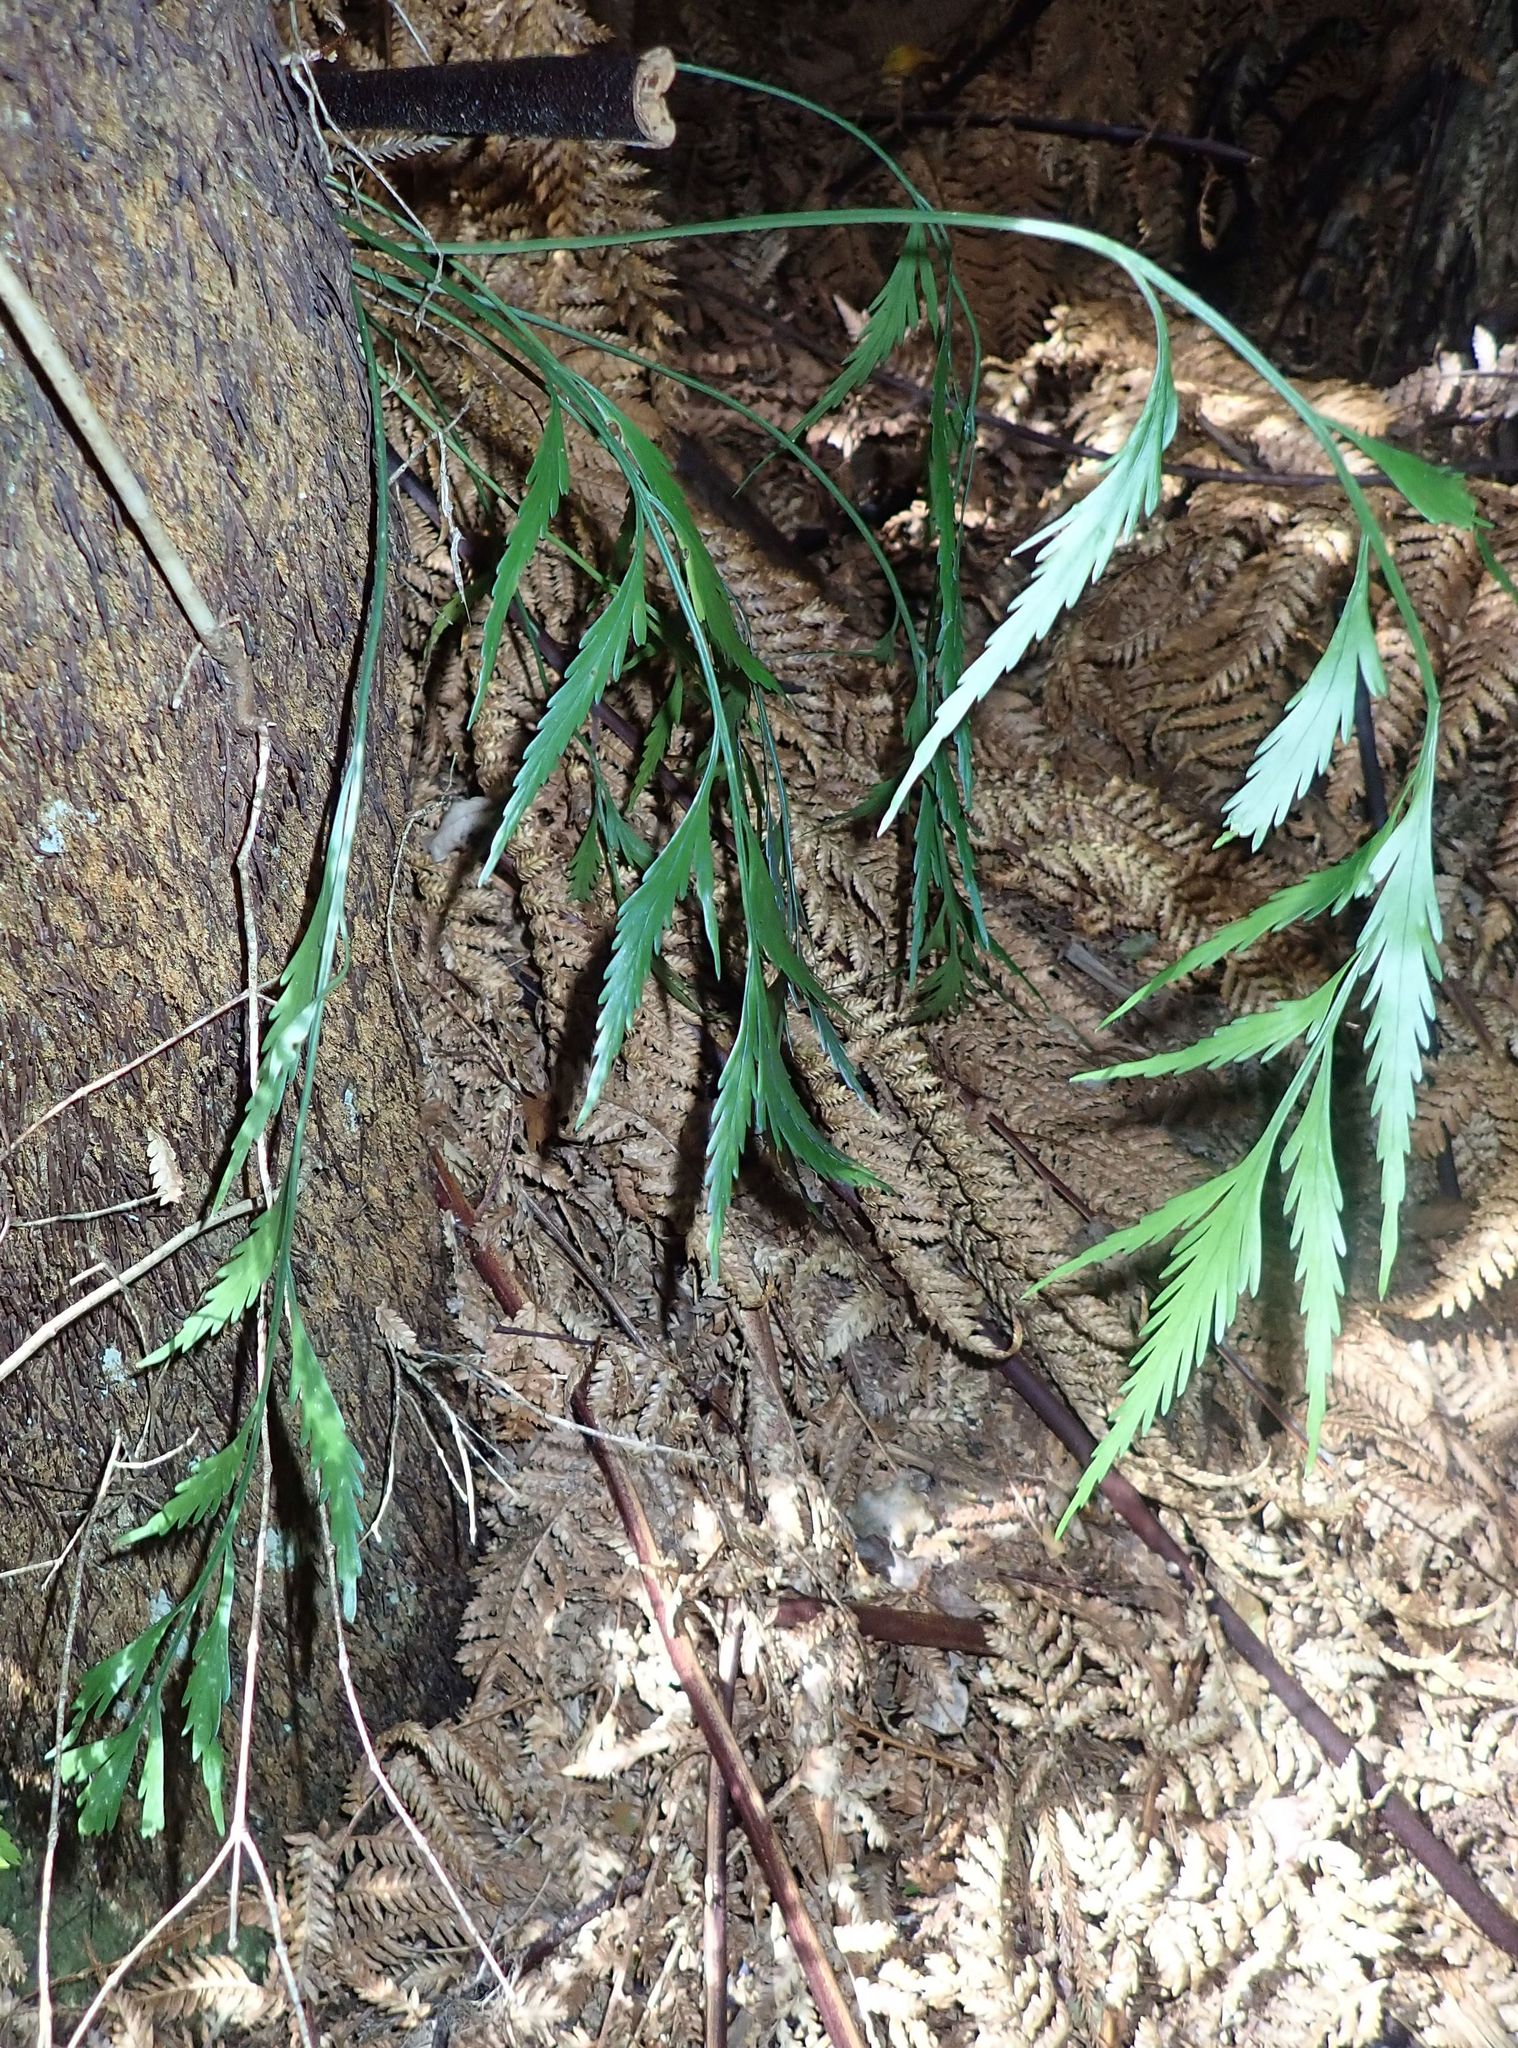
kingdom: Plantae
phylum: Tracheophyta
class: Polypodiopsida
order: Polypodiales
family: Aspleniaceae
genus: Asplenium
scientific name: Asplenium flaccidum
